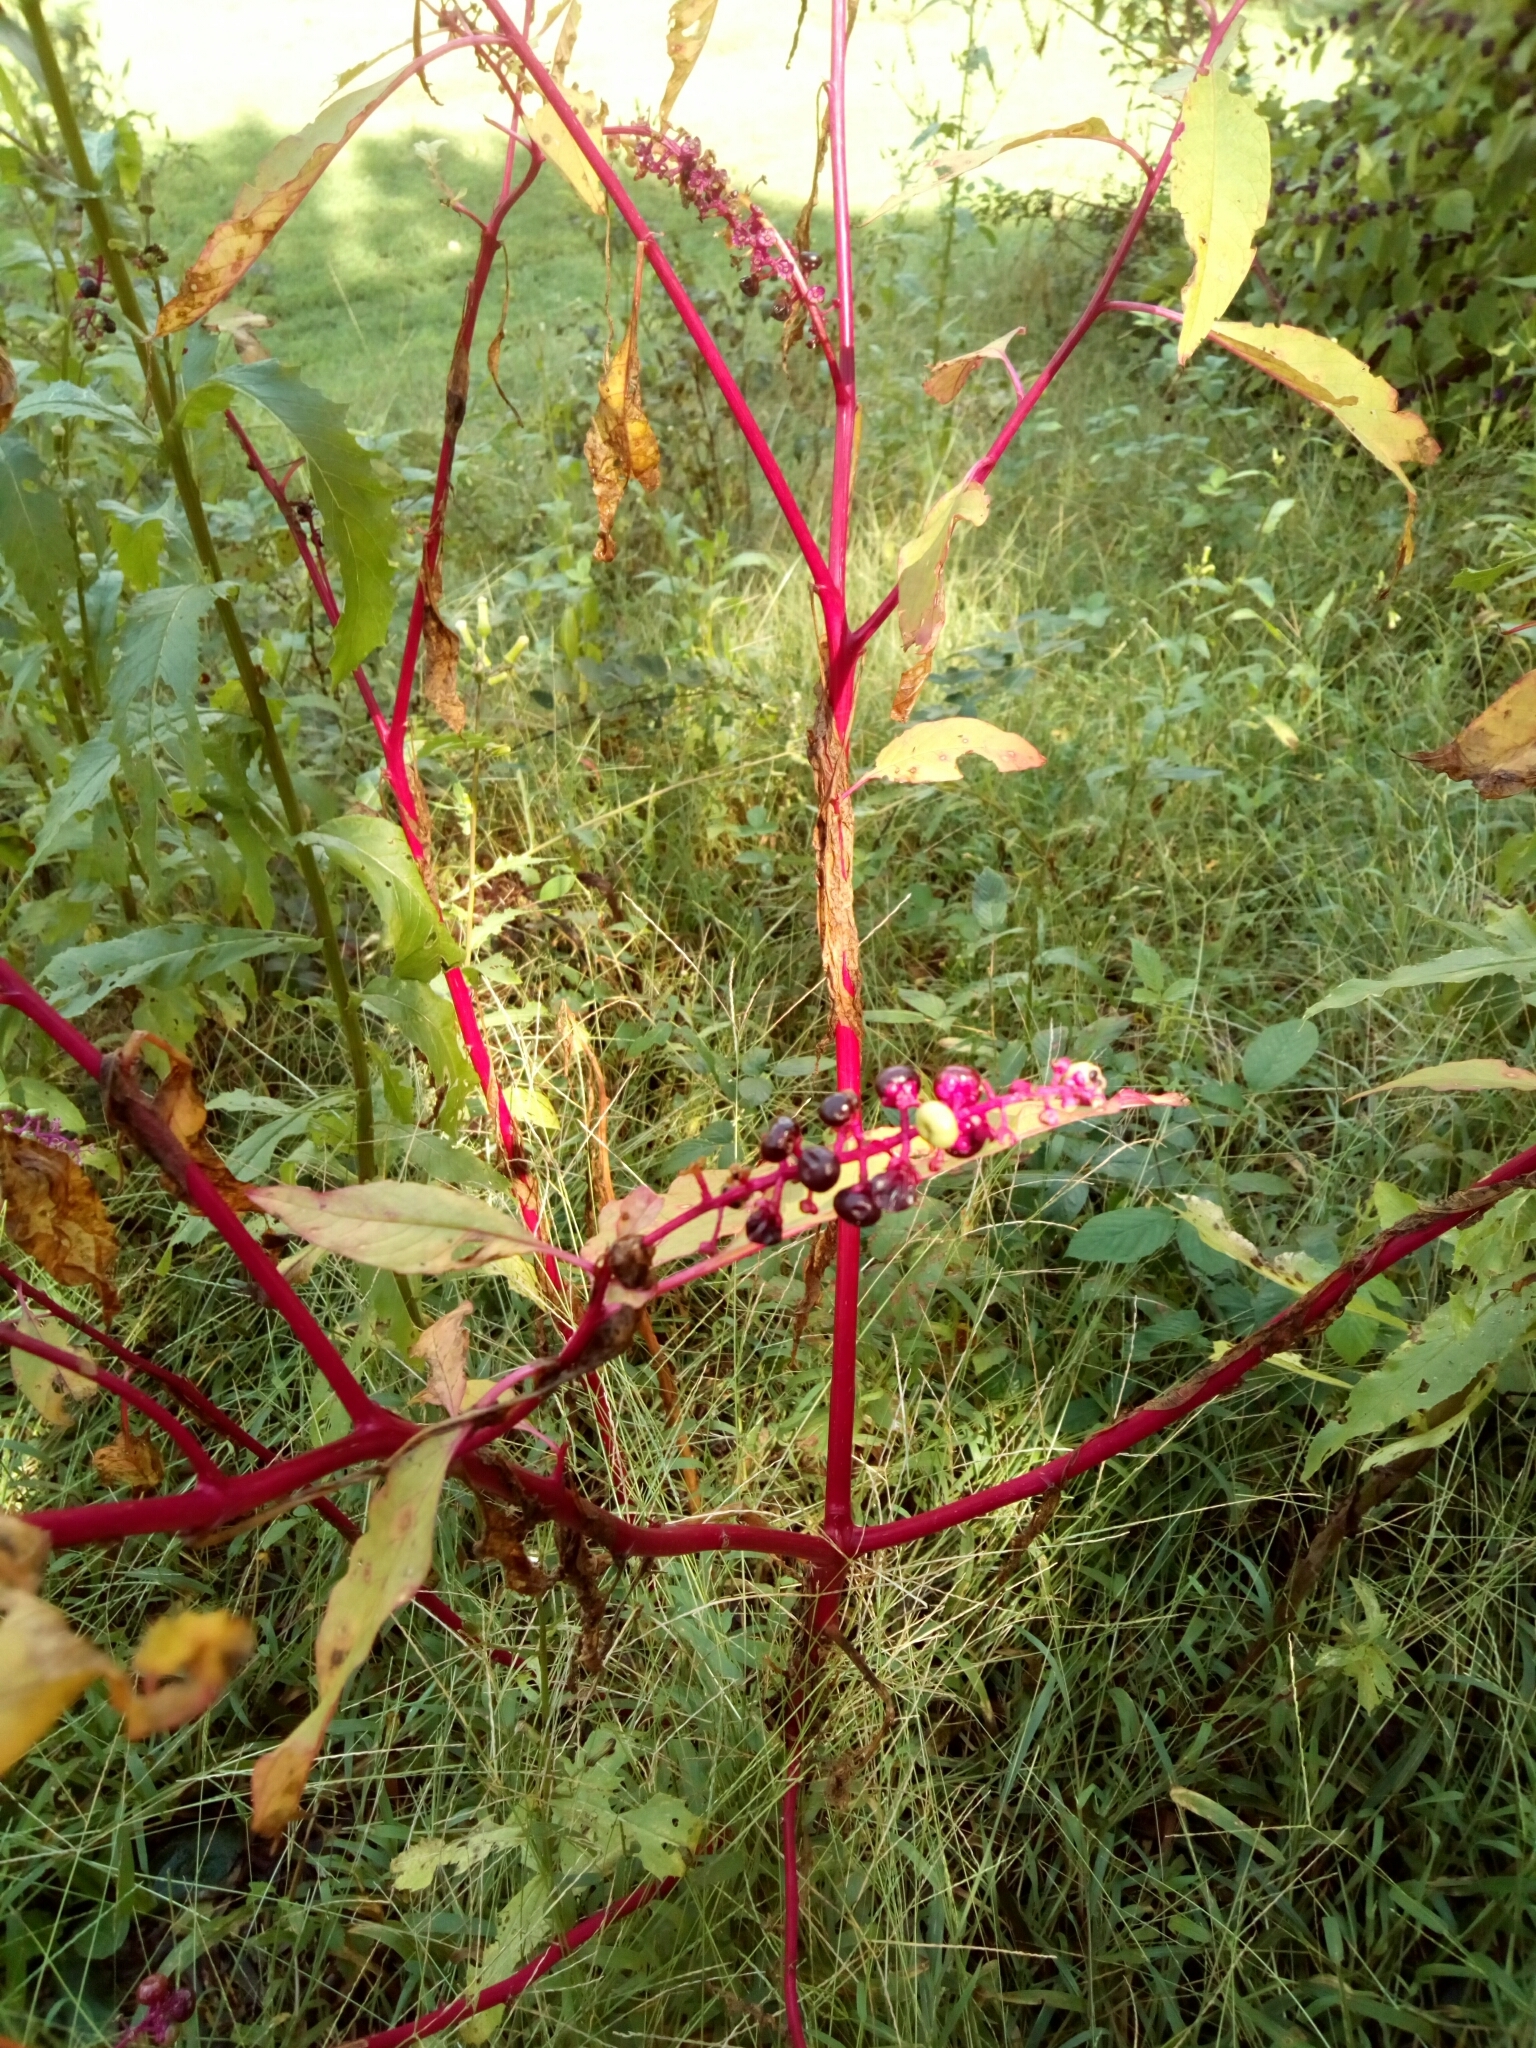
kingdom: Plantae
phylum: Tracheophyta
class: Magnoliopsida
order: Caryophyllales
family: Phytolaccaceae
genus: Phytolacca
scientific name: Phytolacca americana
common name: American pokeweed
